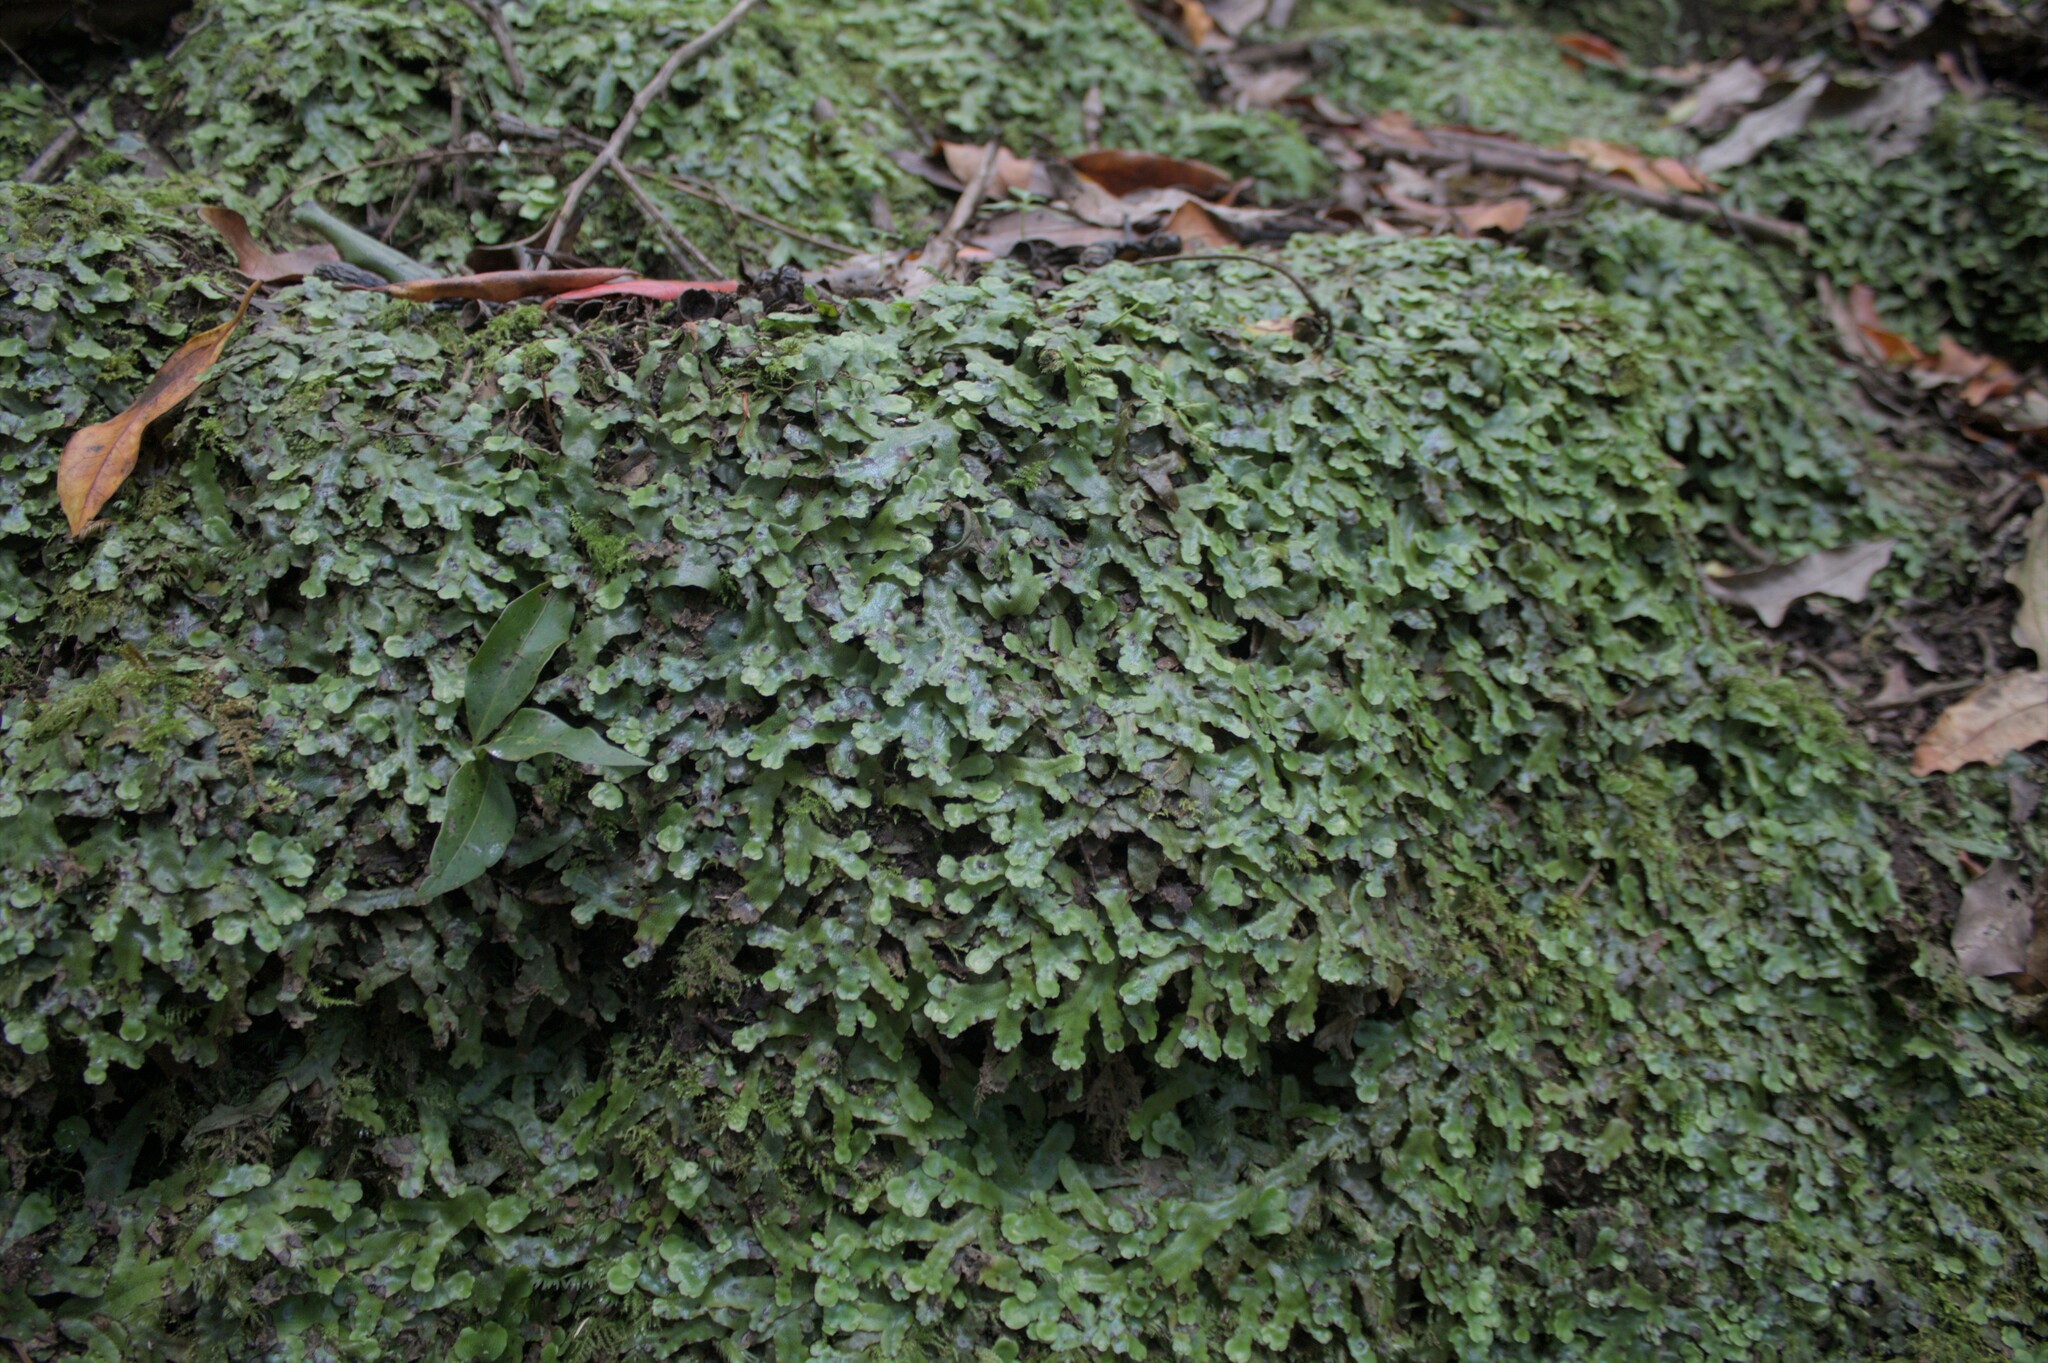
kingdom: Plantae
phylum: Marchantiophyta
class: Marchantiopsida
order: Marchantiales
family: Conocephalaceae
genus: Conocephalum
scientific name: Conocephalum conicum
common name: Great scented liverwort
